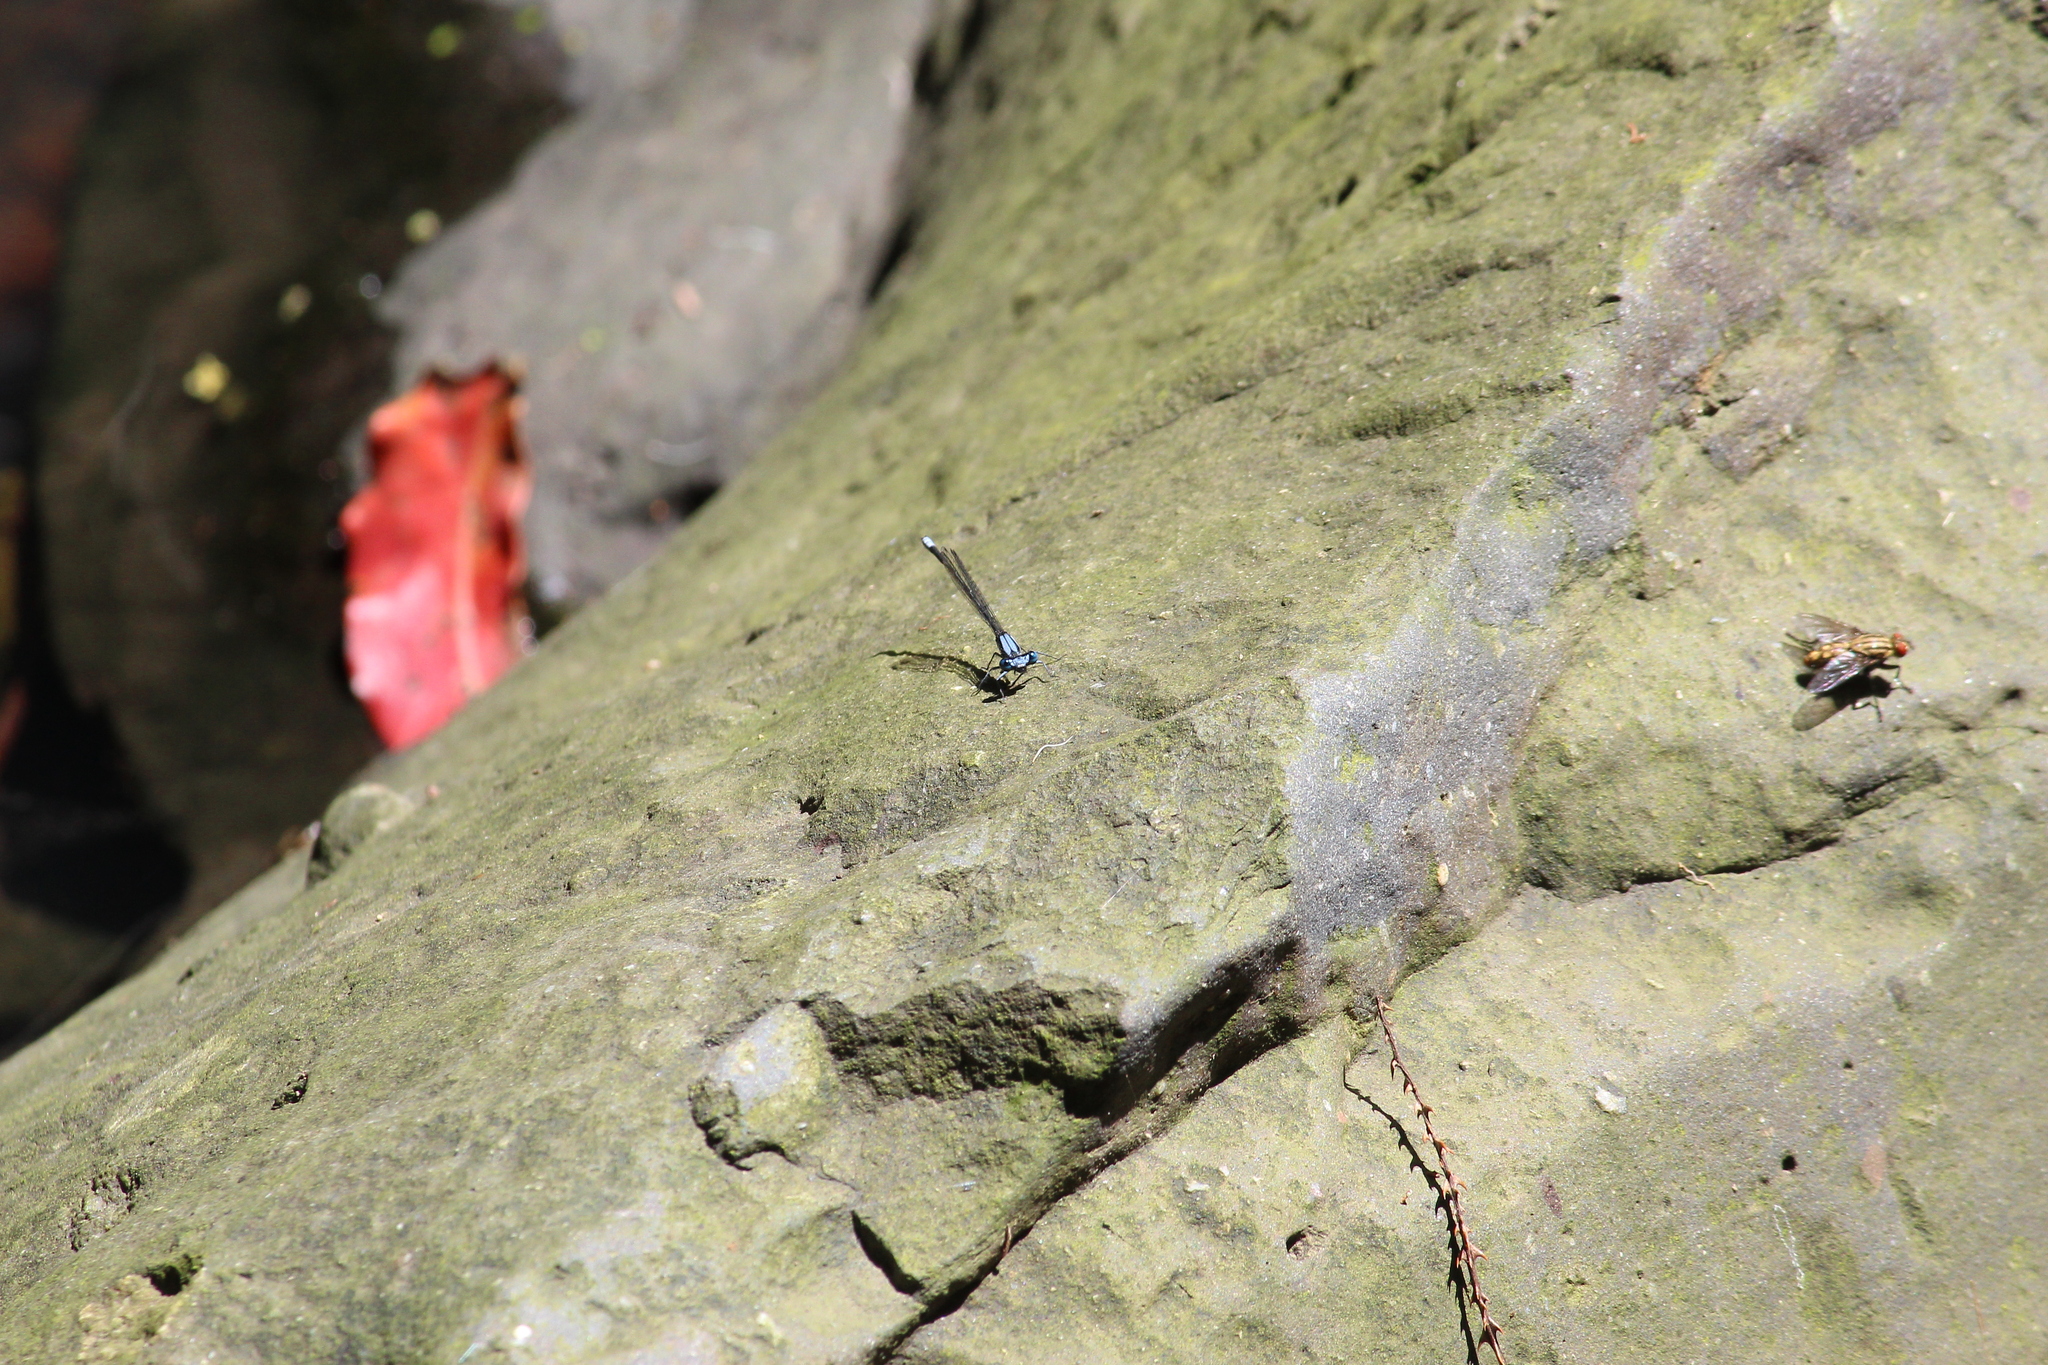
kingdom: Animalia
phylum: Arthropoda
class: Insecta
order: Odonata
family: Platycnemididae
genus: Elattoneura
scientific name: Elattoneura glauca
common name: Common threadtail
